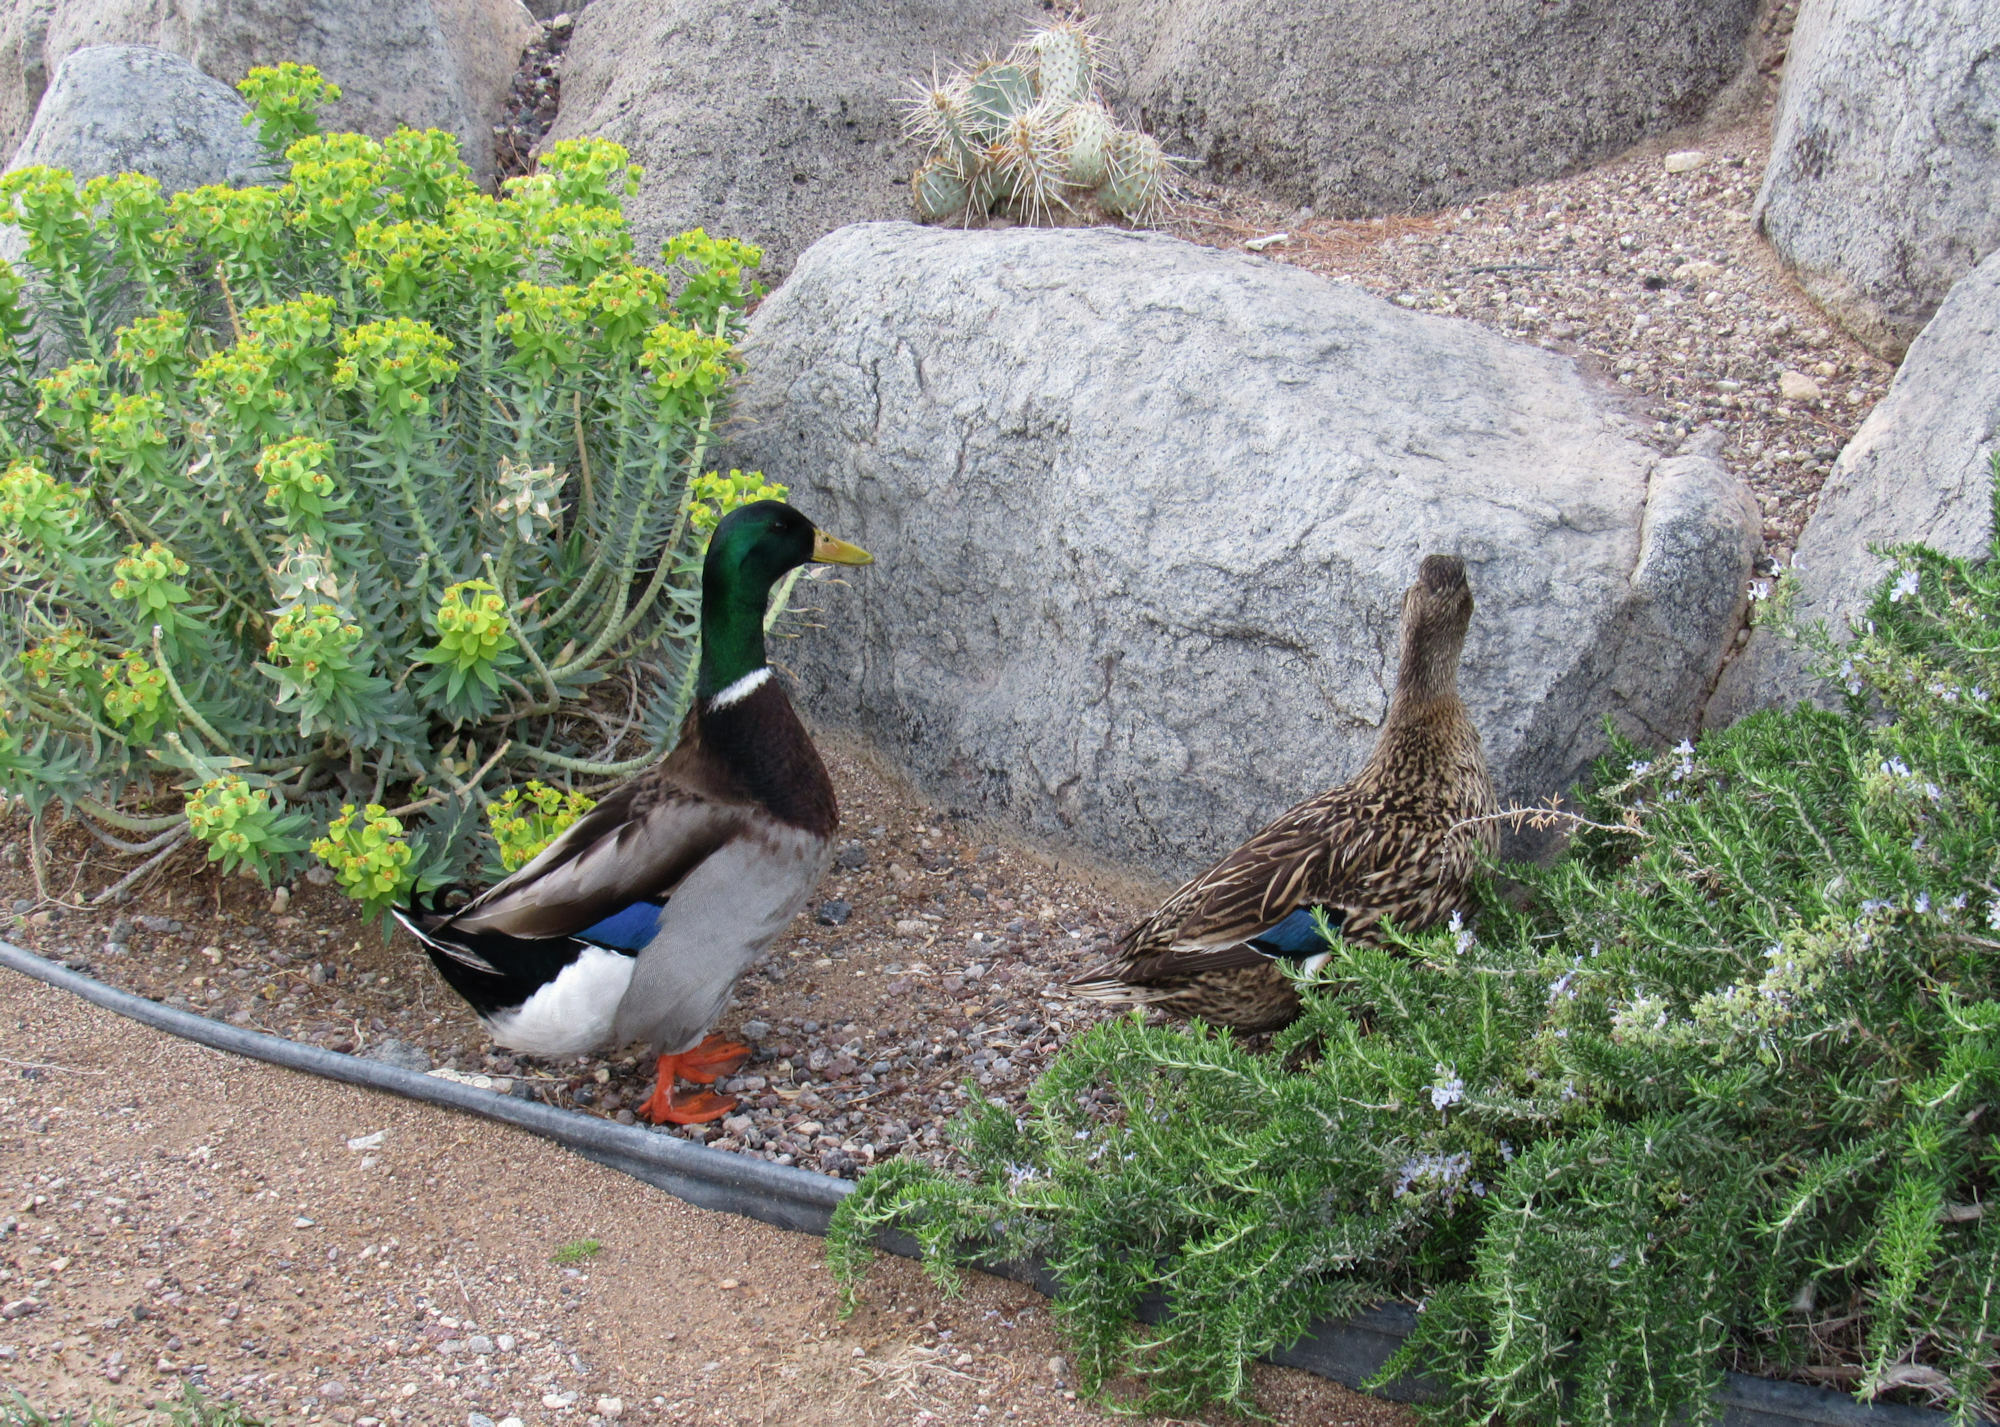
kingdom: Animalia
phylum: Chordata
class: Aves
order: Anseriformes
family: Anatidae
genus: Anas
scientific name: Anas platyrhynchos
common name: Mallard
